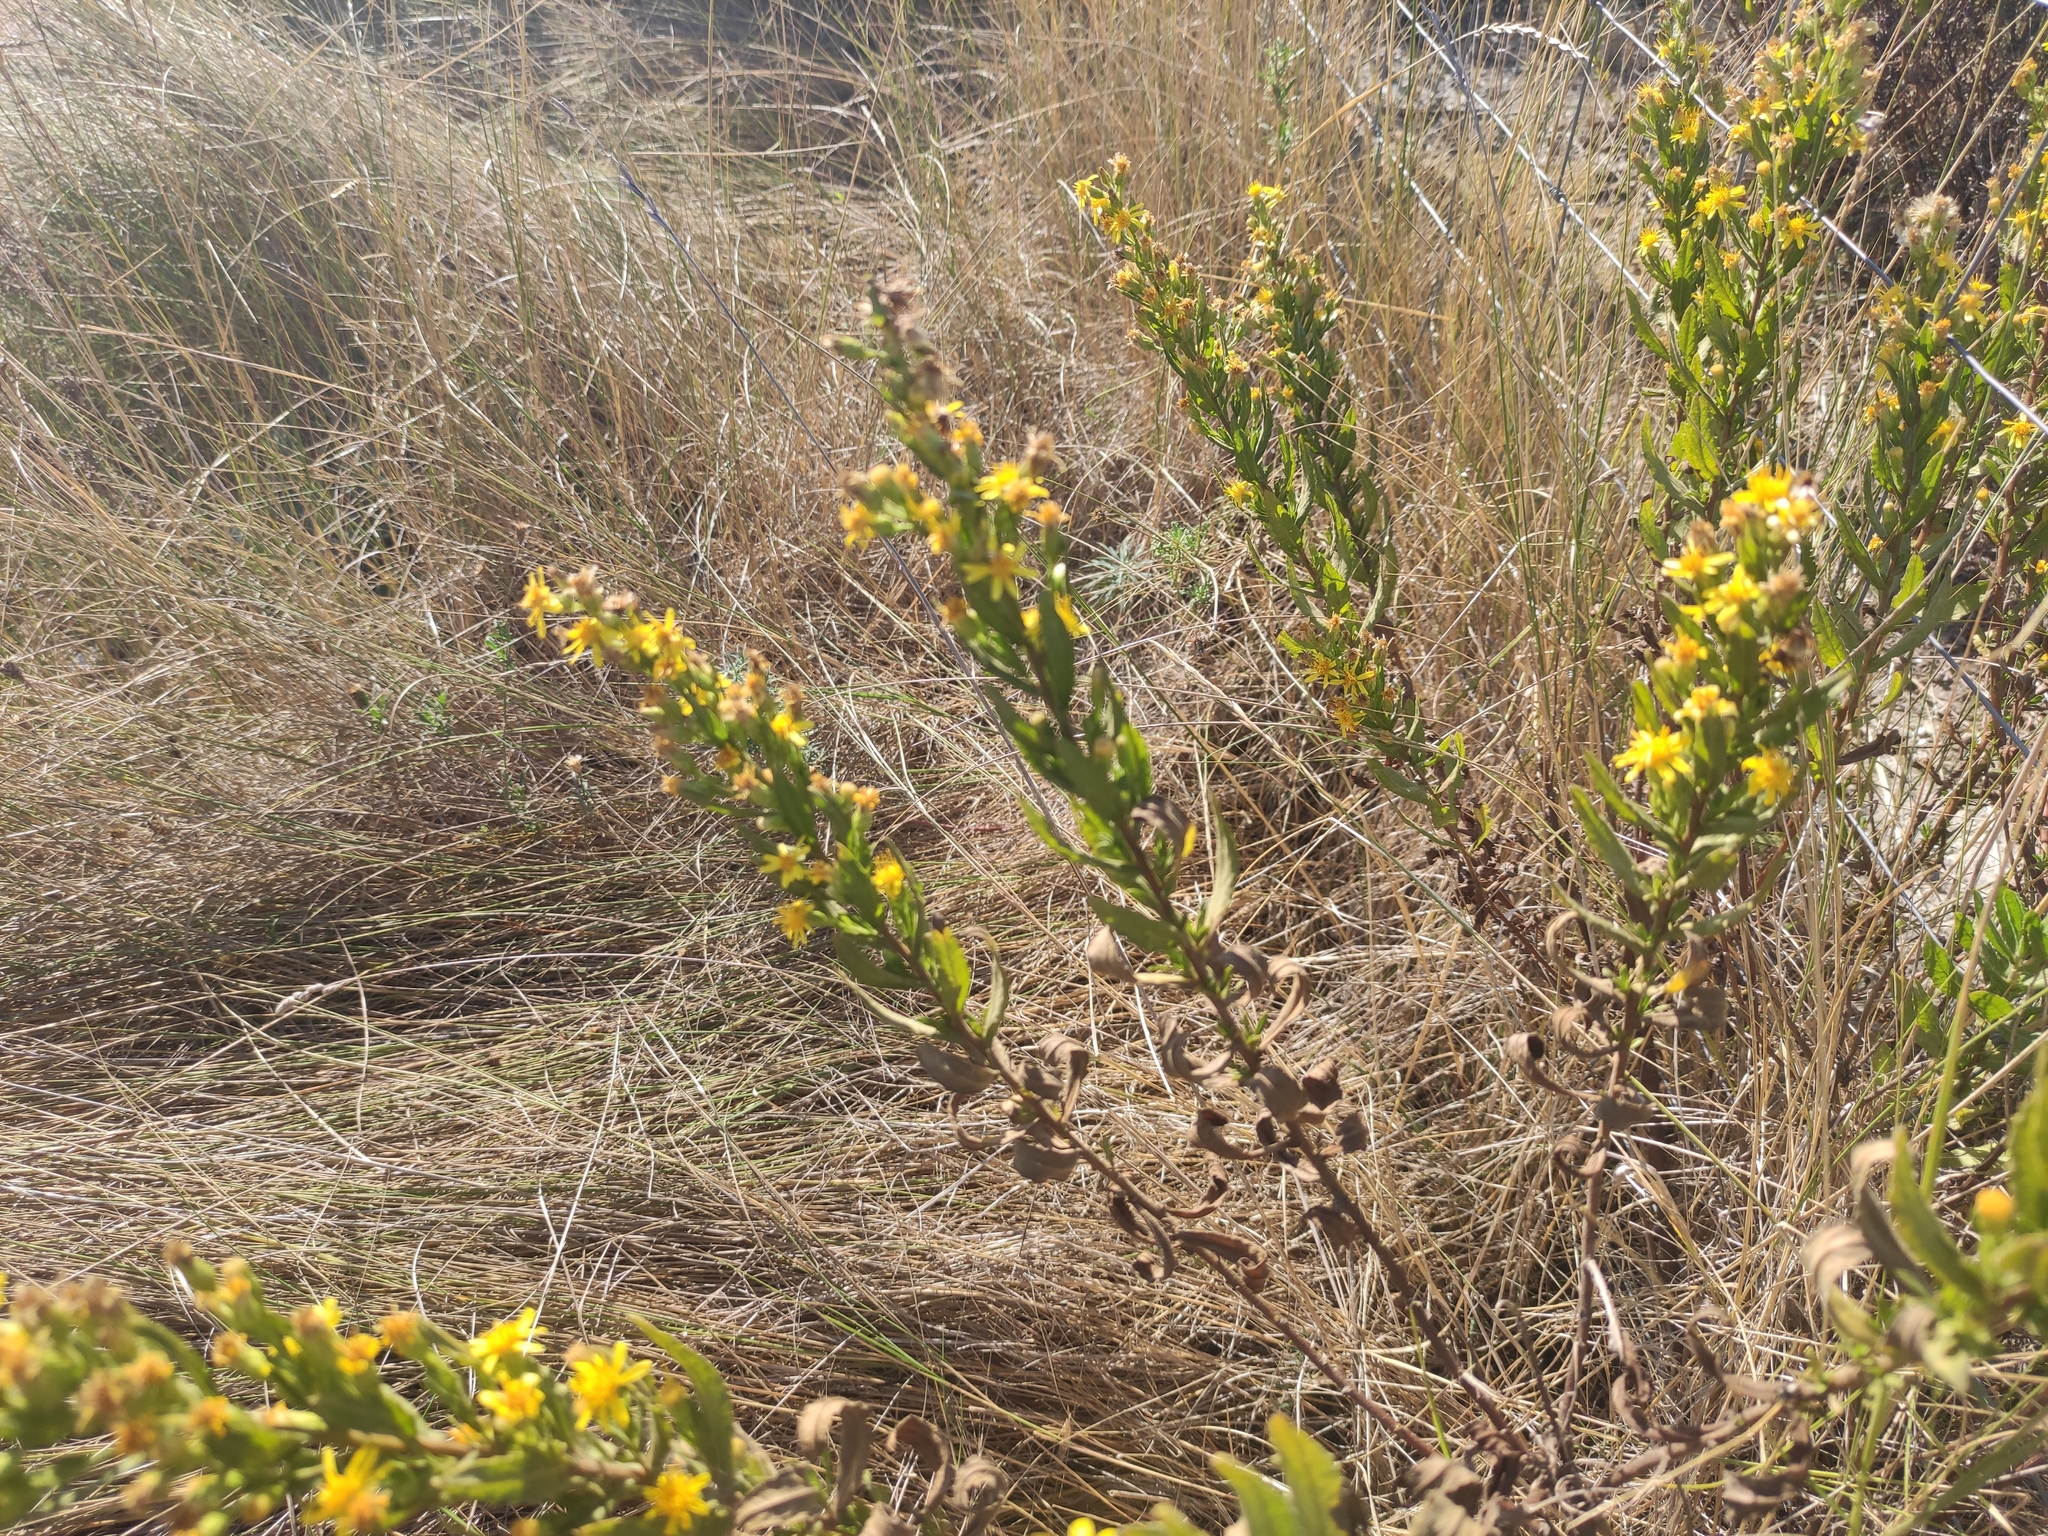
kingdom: Plantae
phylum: Tracheophyta
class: Magnoliopsida
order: Asterales
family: Asteraceae
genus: Dittrichia
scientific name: Dittrichia viscosa
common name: Woody fleabane
